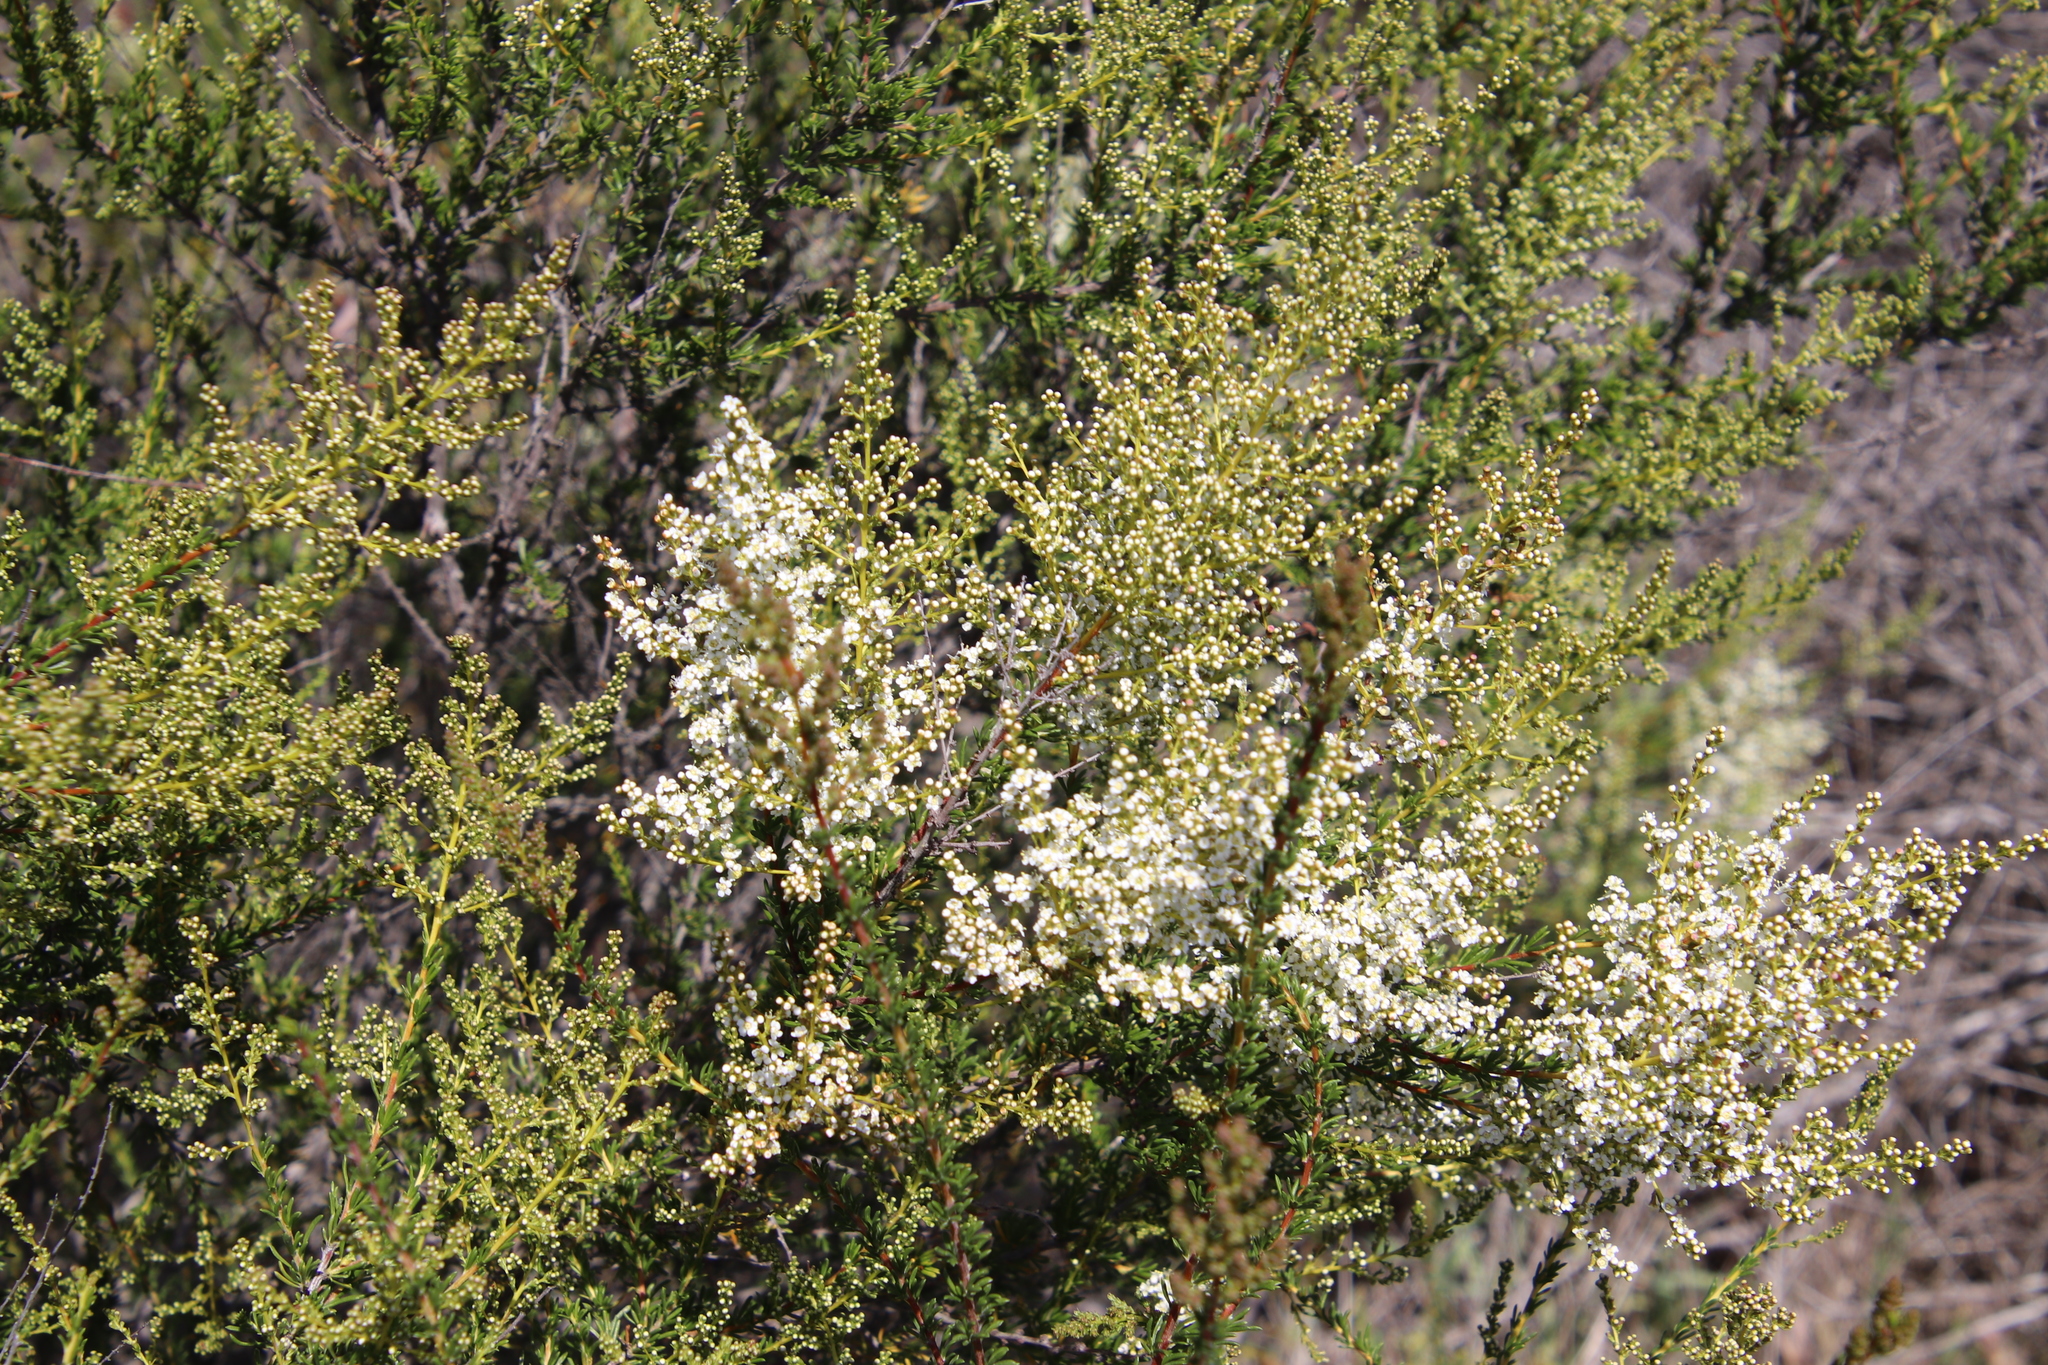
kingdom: Plantae
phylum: Tracheophyta
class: Magnoliopsida
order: Rosales
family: Rosaceae
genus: Adenostoma
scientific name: Adenostoma fasciculatum
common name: Chamise
